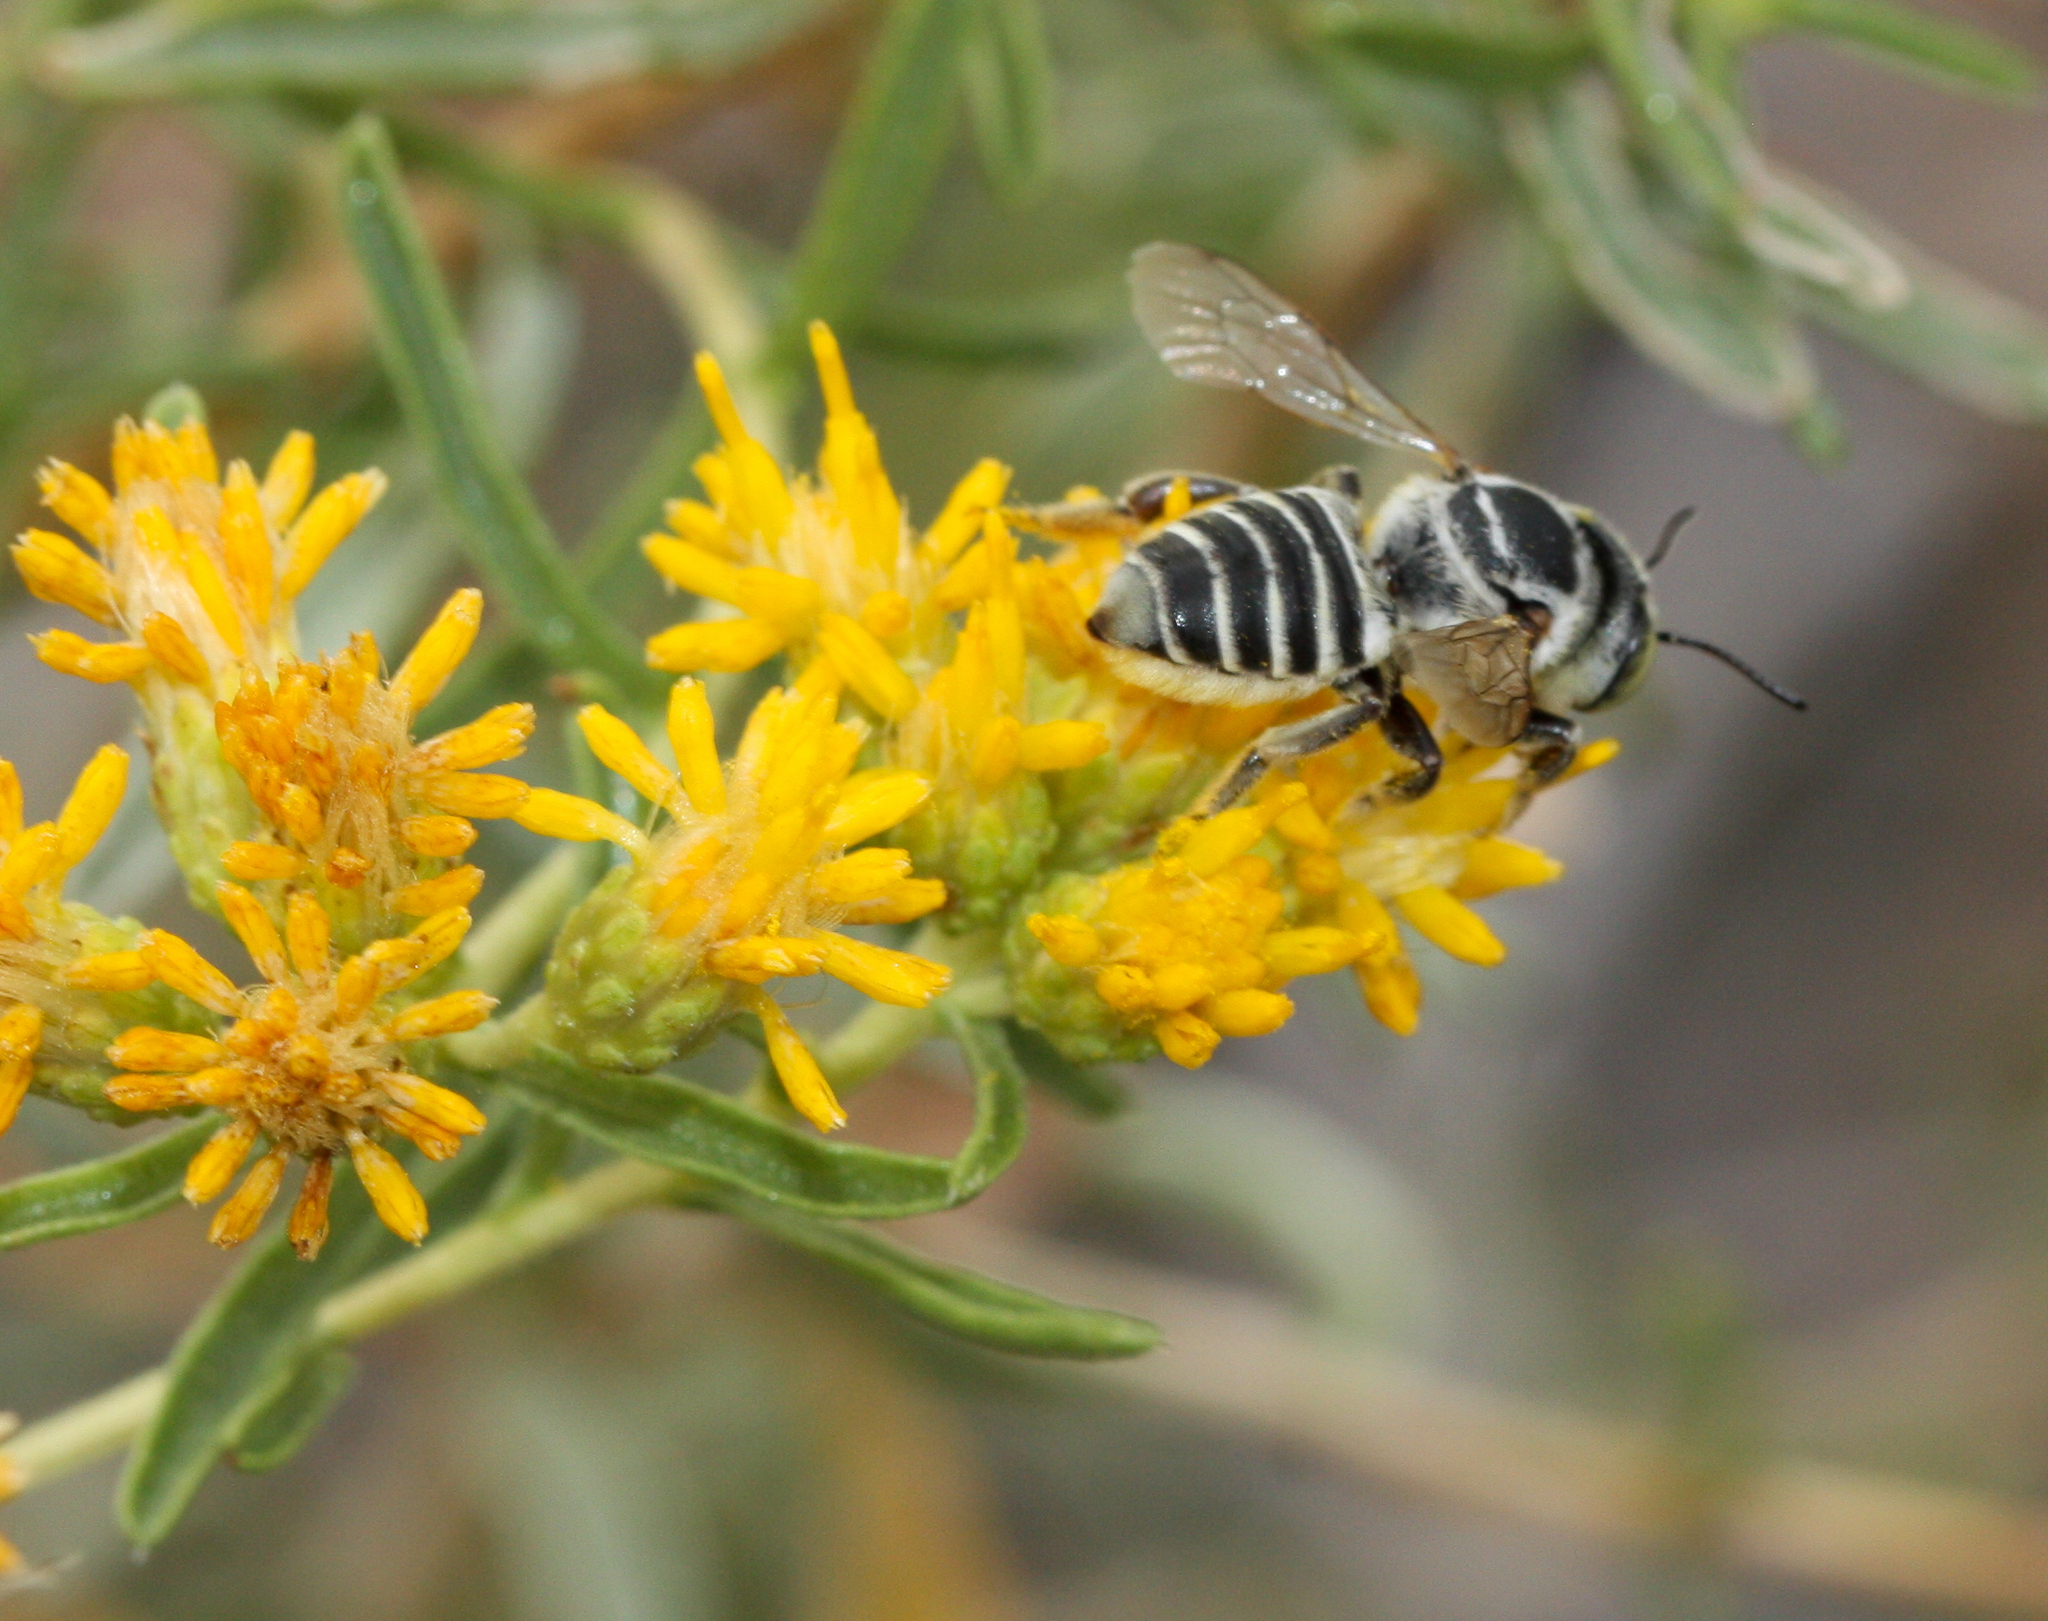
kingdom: Animalia
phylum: Arthropoda
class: Insecta
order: Hymenoptera
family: Megachilidae
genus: Megachile
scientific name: Megachile
